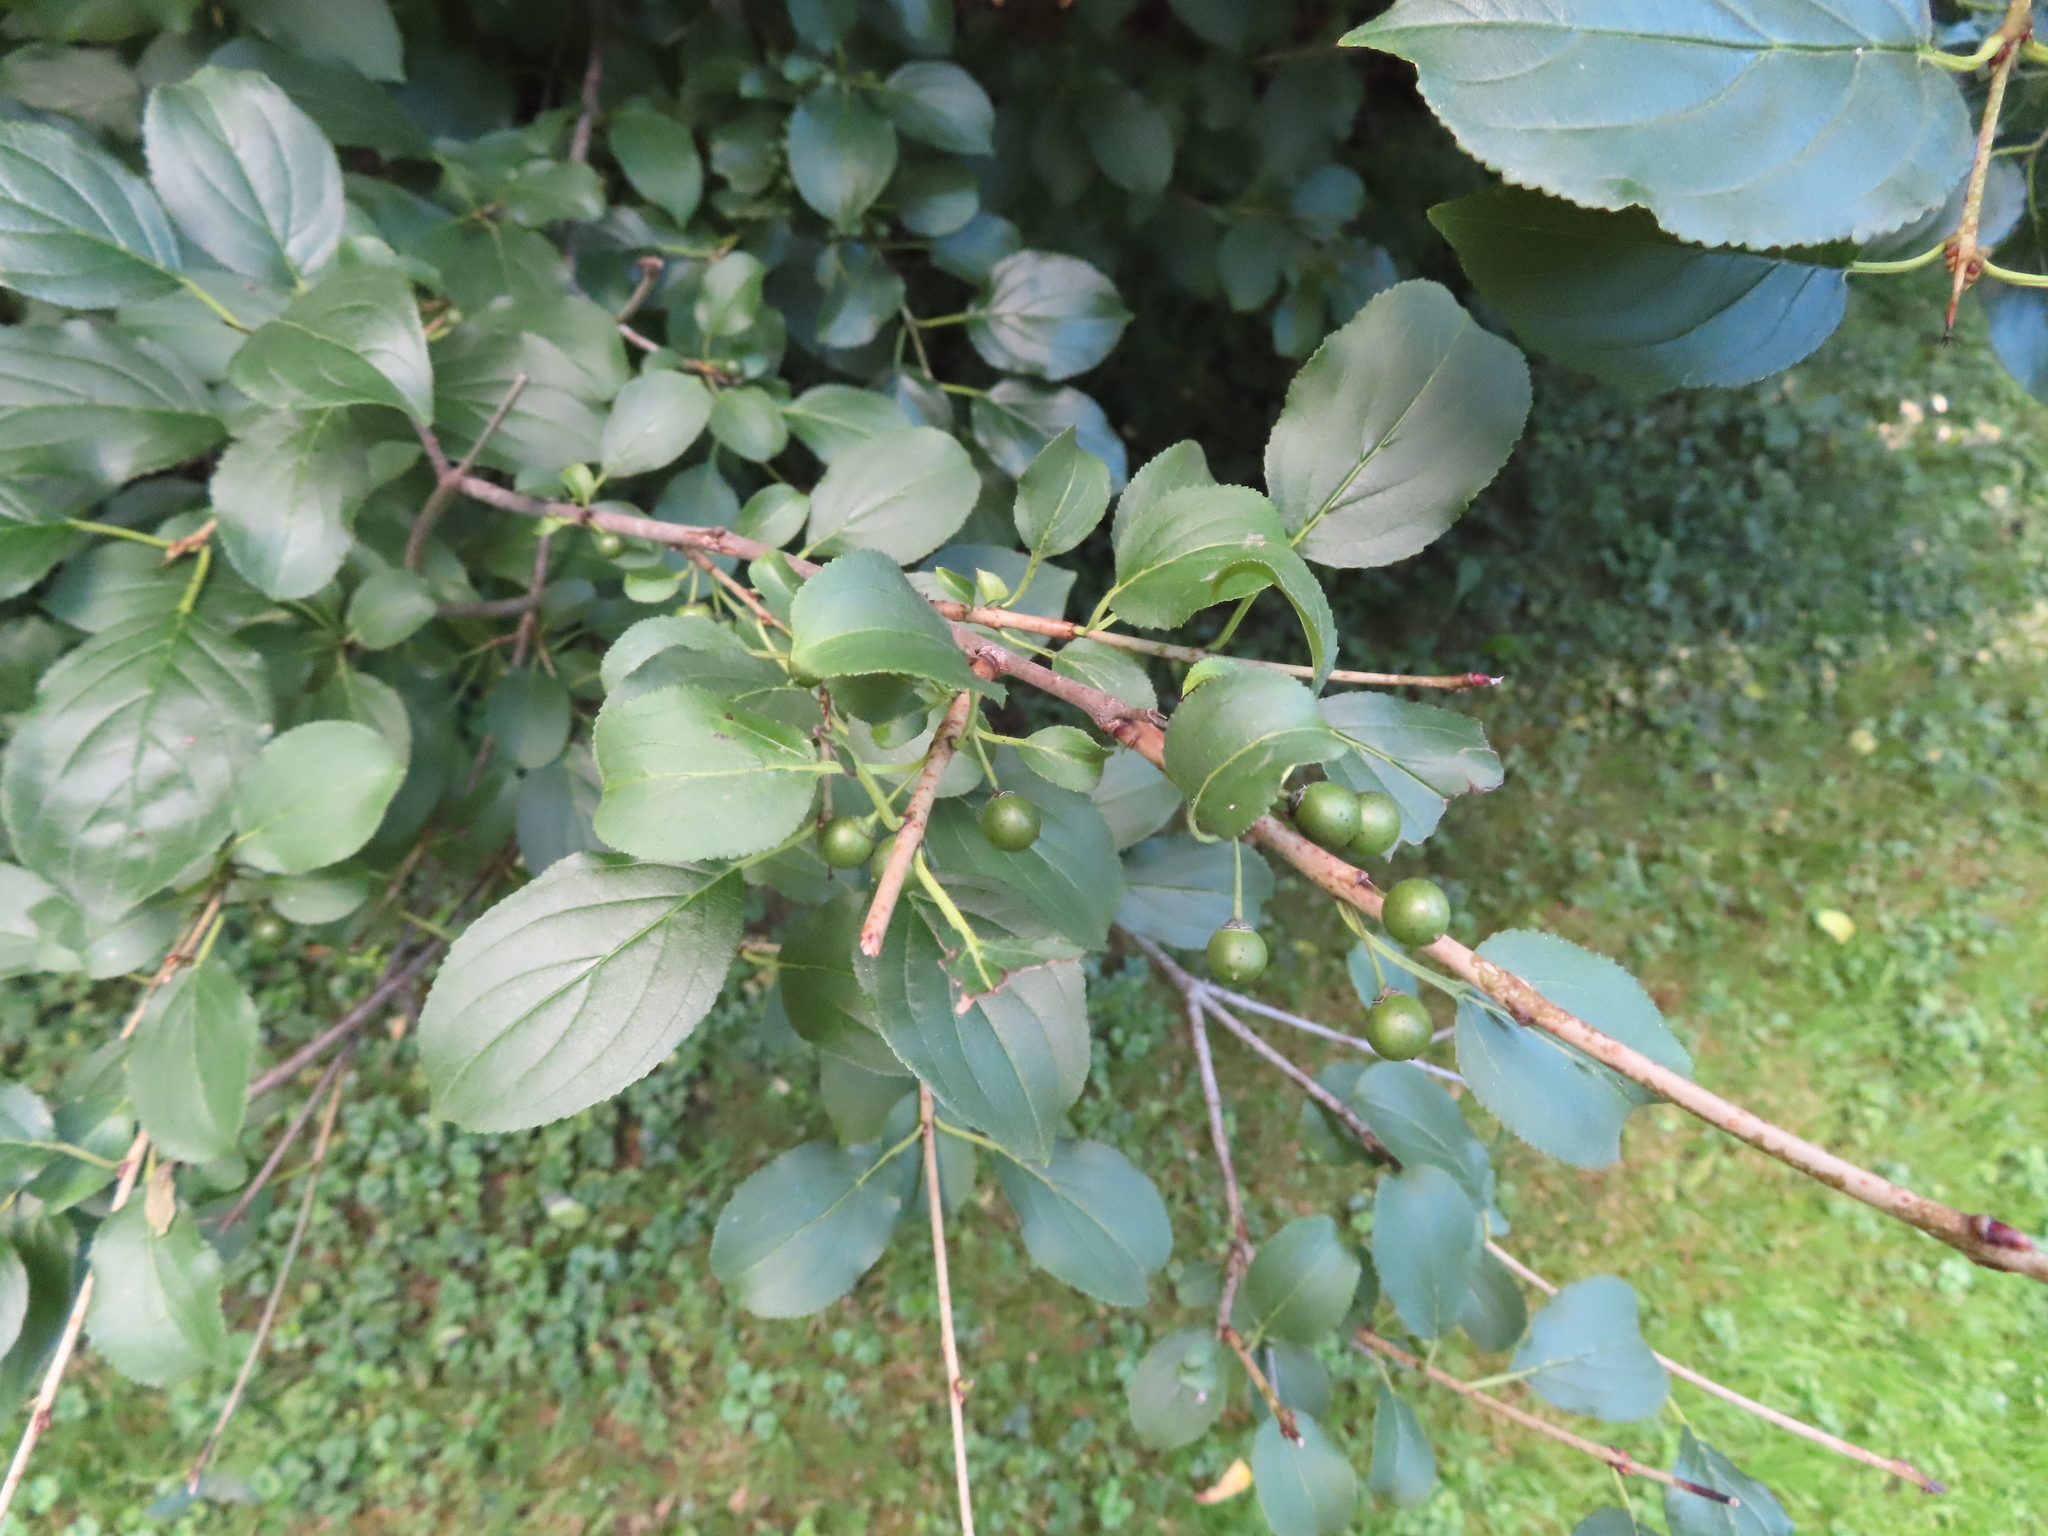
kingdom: Plantae
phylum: Tracheophyta
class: Magnoliopsida
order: Rosales
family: Rhamnaceae
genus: Rhamnus
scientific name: Rhamnus cathartica
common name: Common buckthorn
